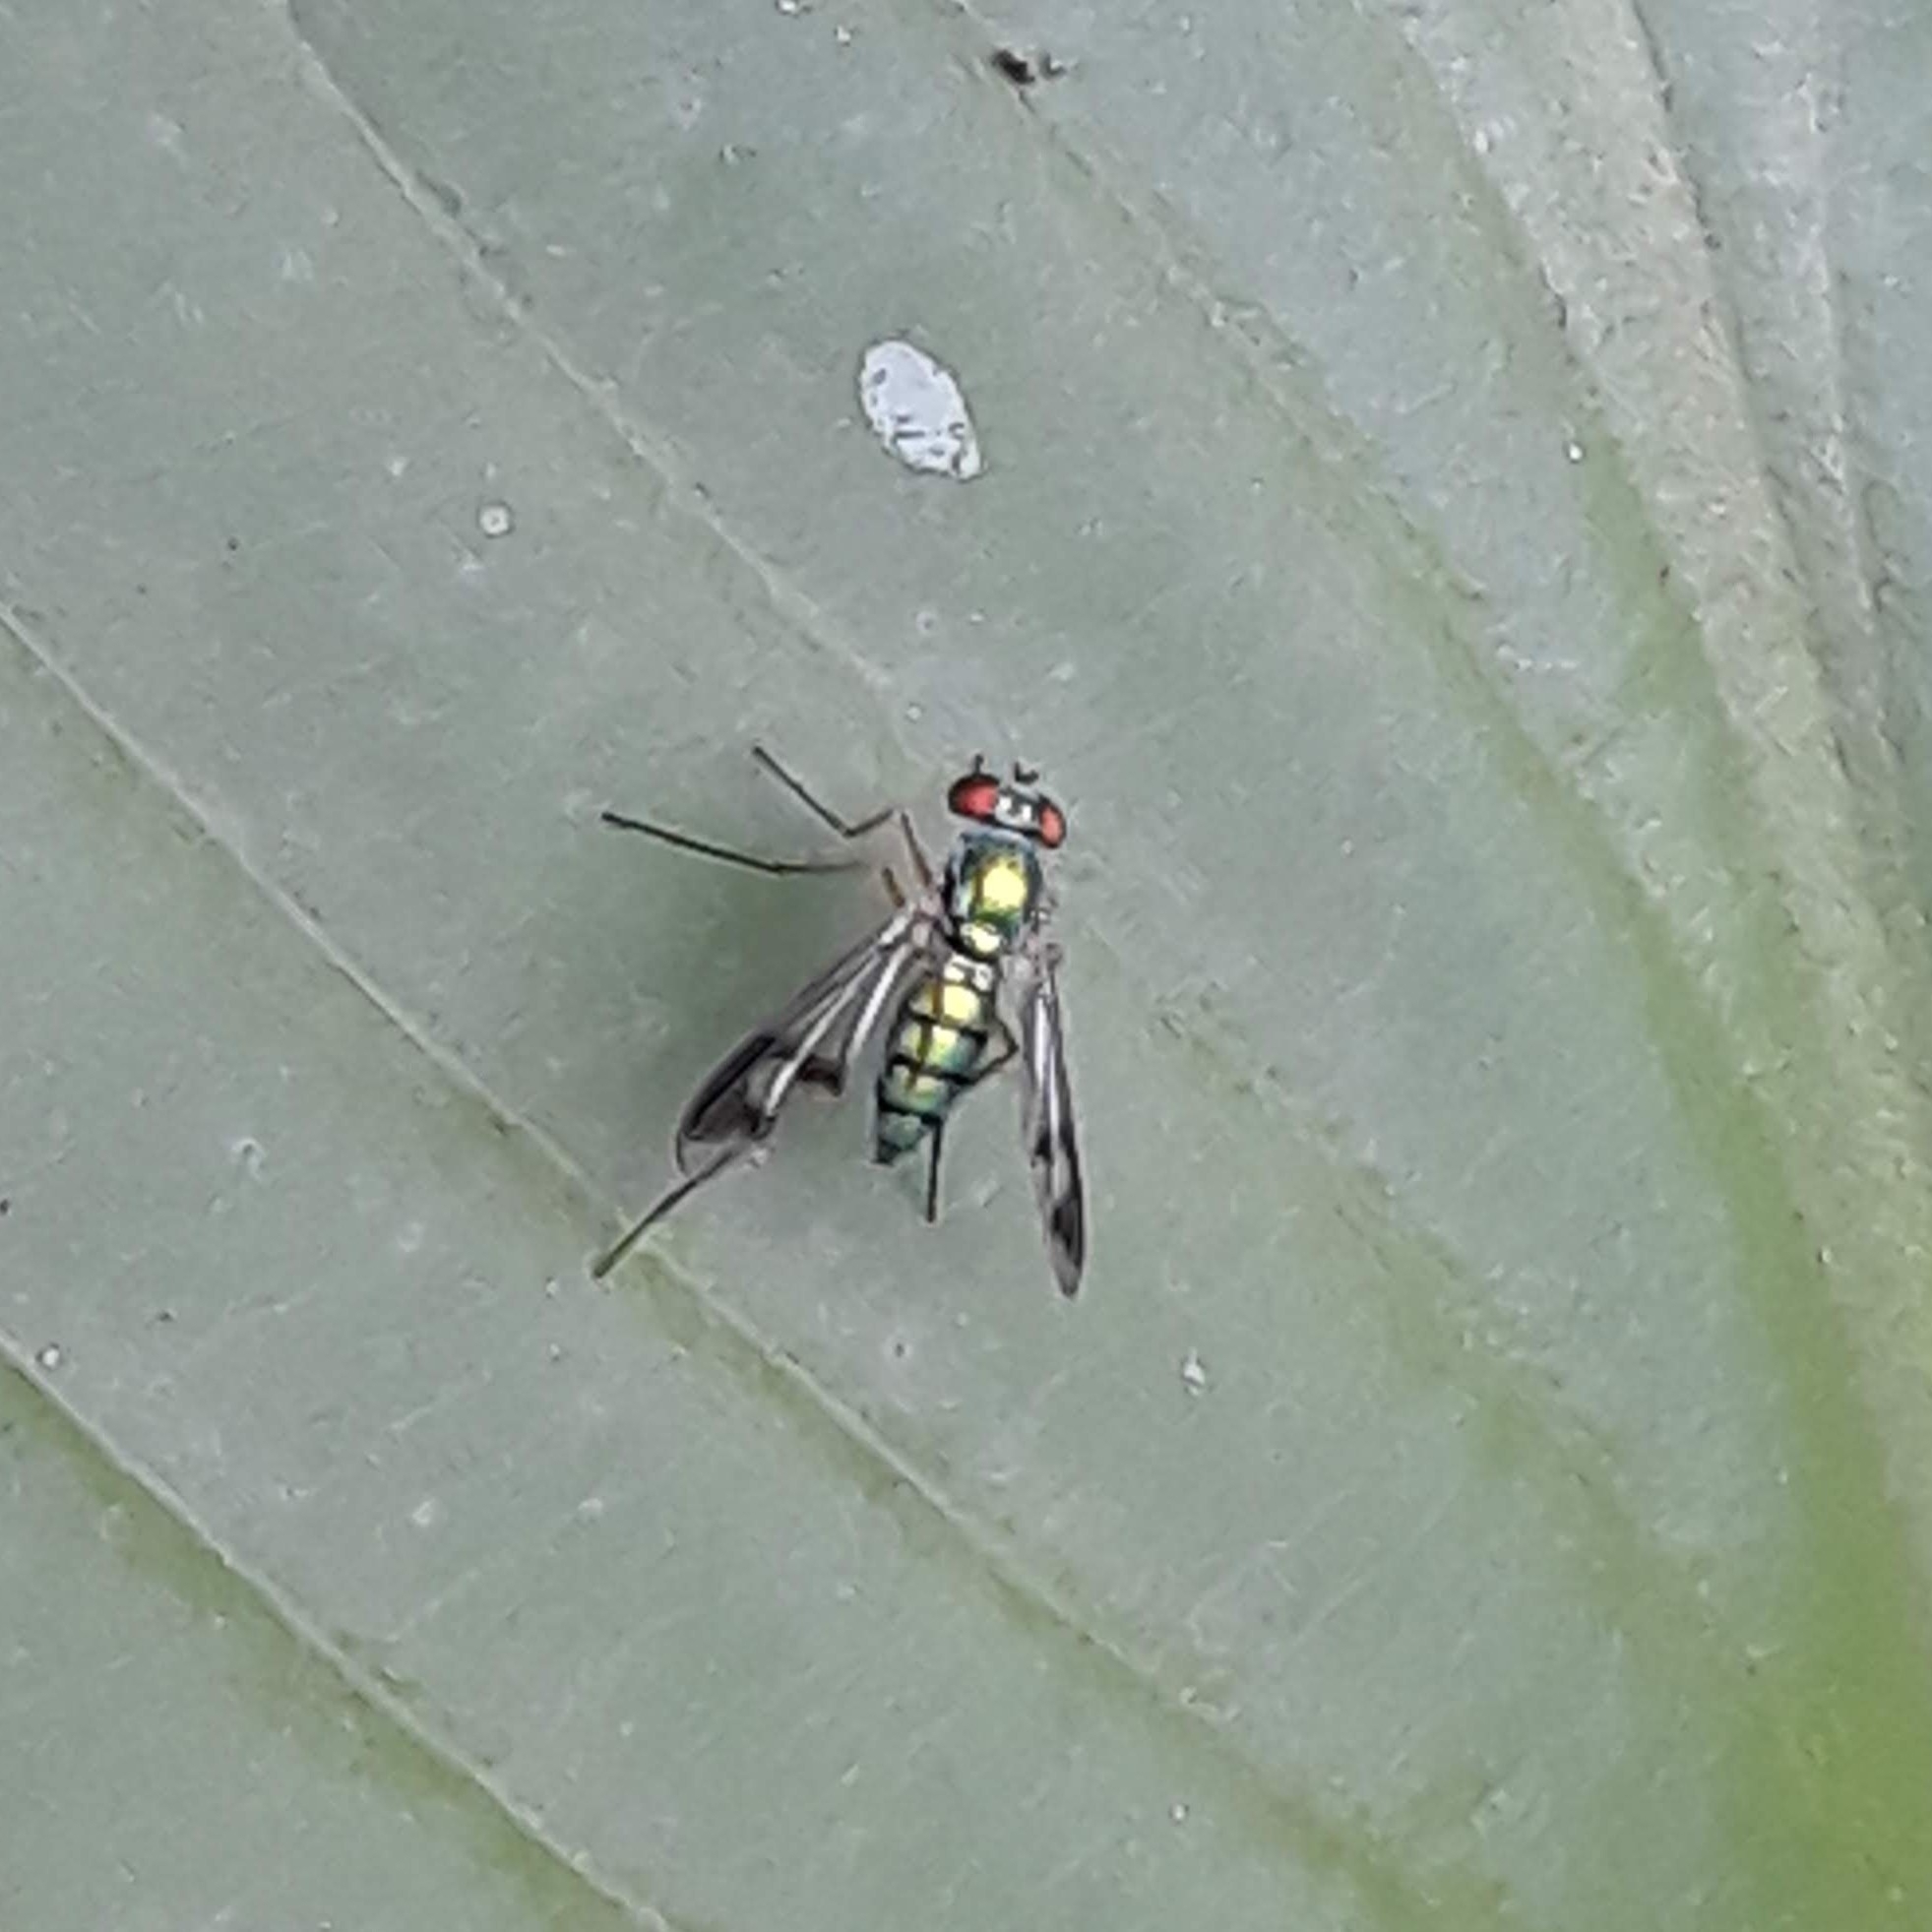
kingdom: Animalia
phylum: Arthropoda
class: Insecta
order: Diptera
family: Dolichopodidae
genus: Condylostylus
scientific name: Condylostylus
